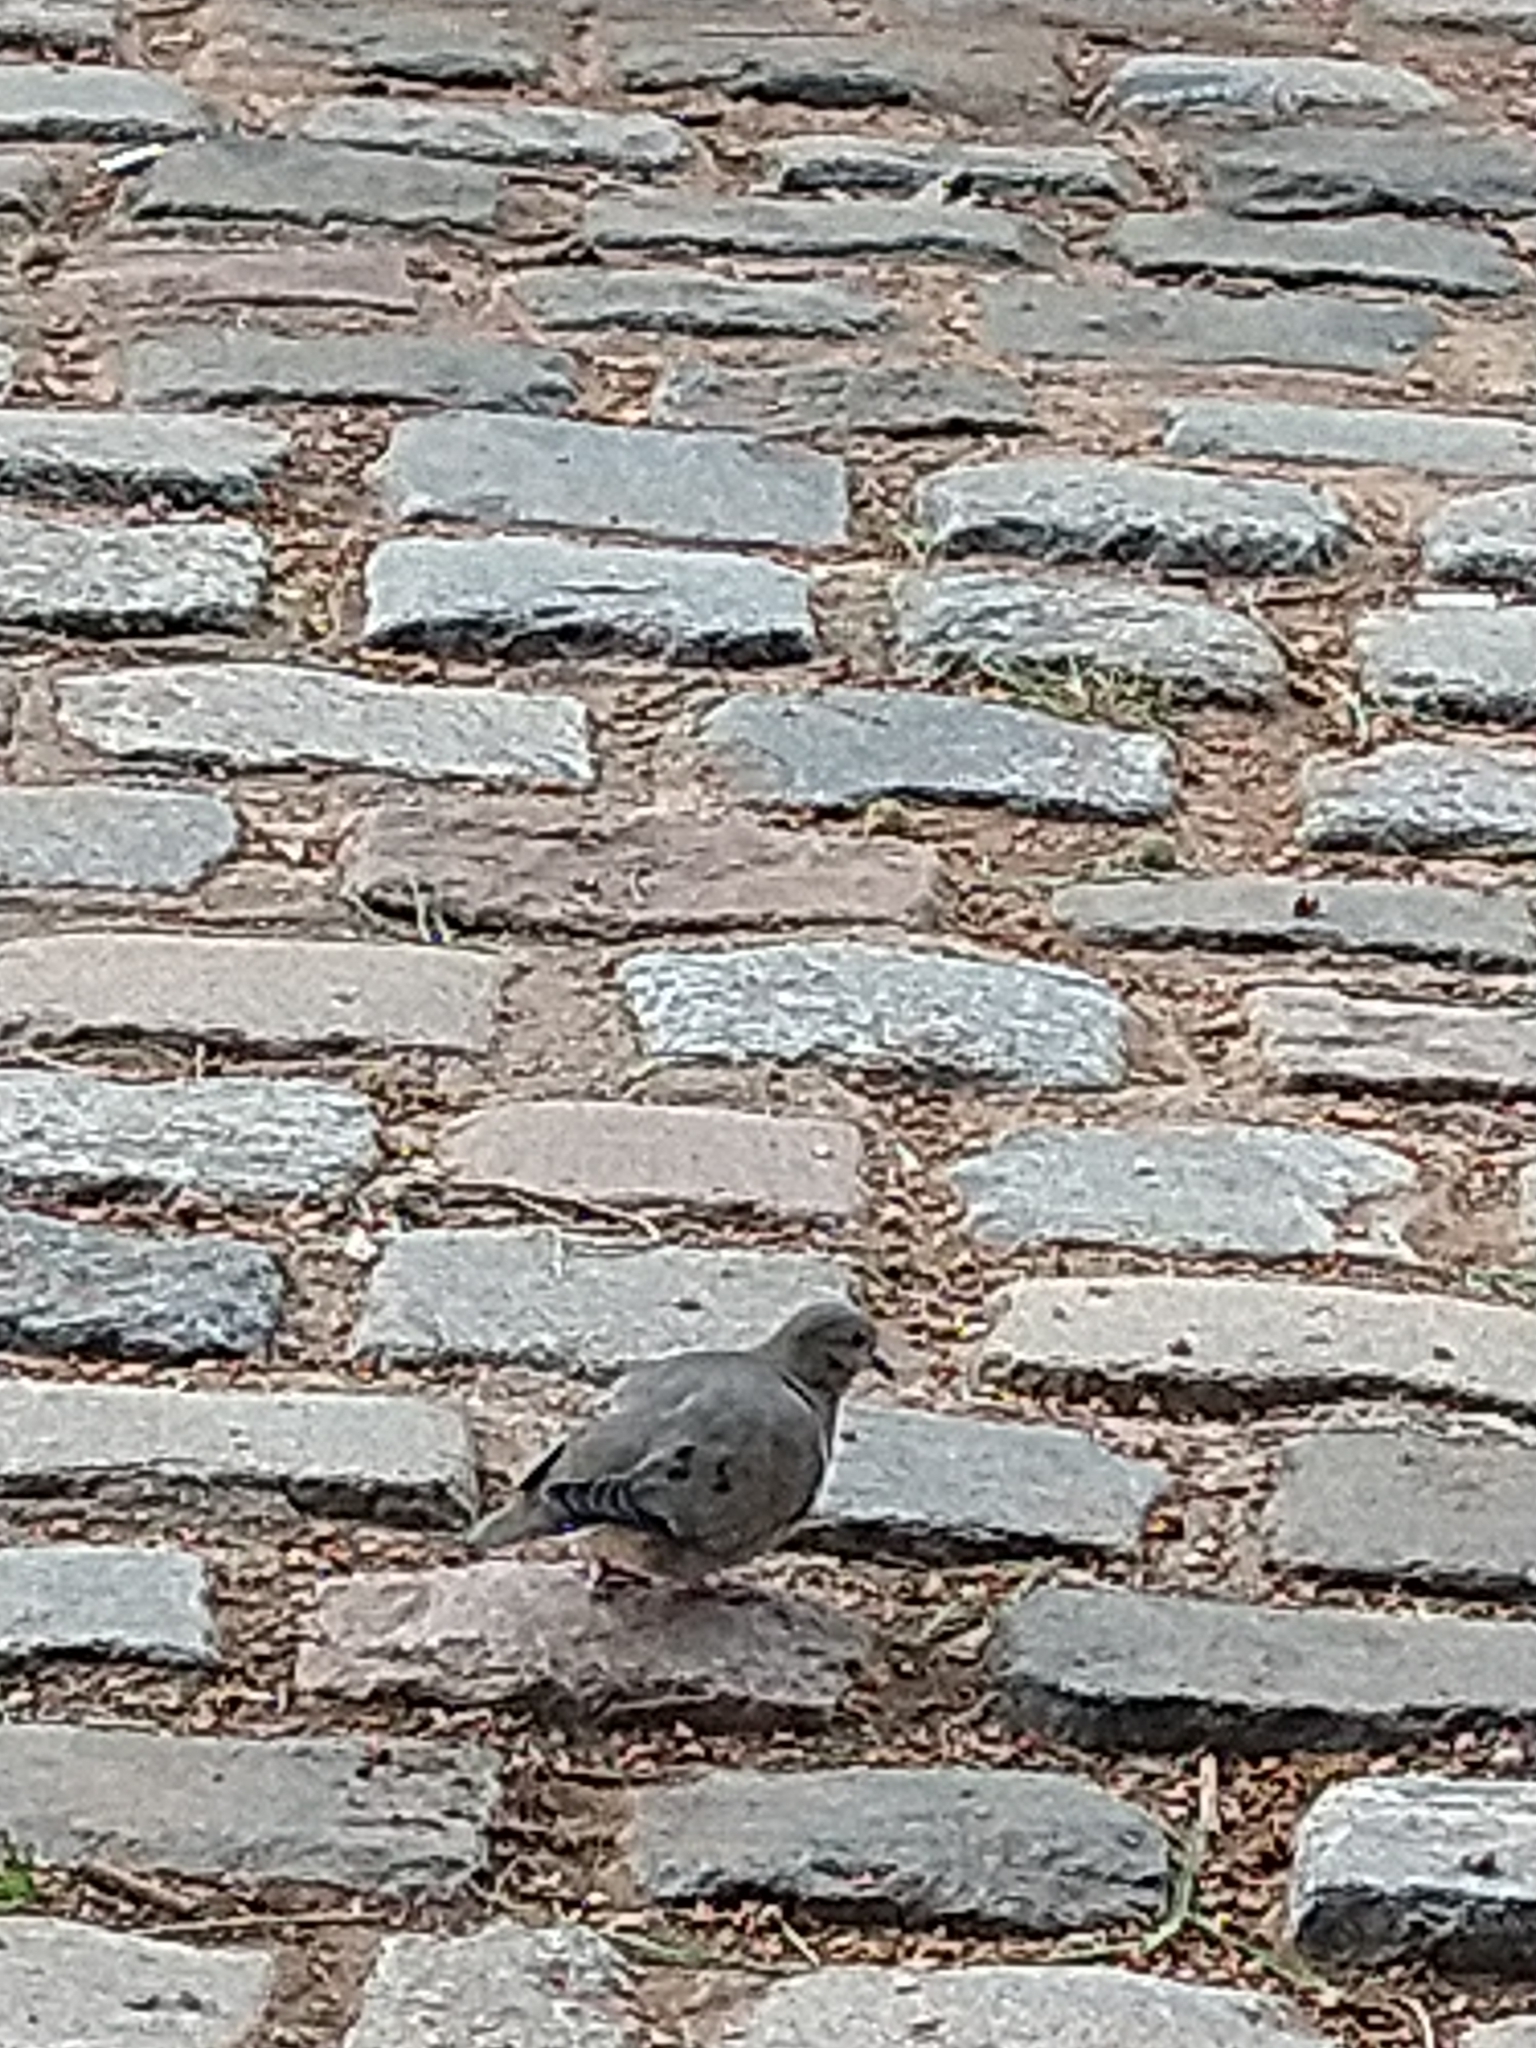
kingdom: Animalia
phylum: Chordata
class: Aves
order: Columbiformes
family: Columbidae
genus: Zenaida
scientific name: Zenaida auriculata
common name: Eared dove
